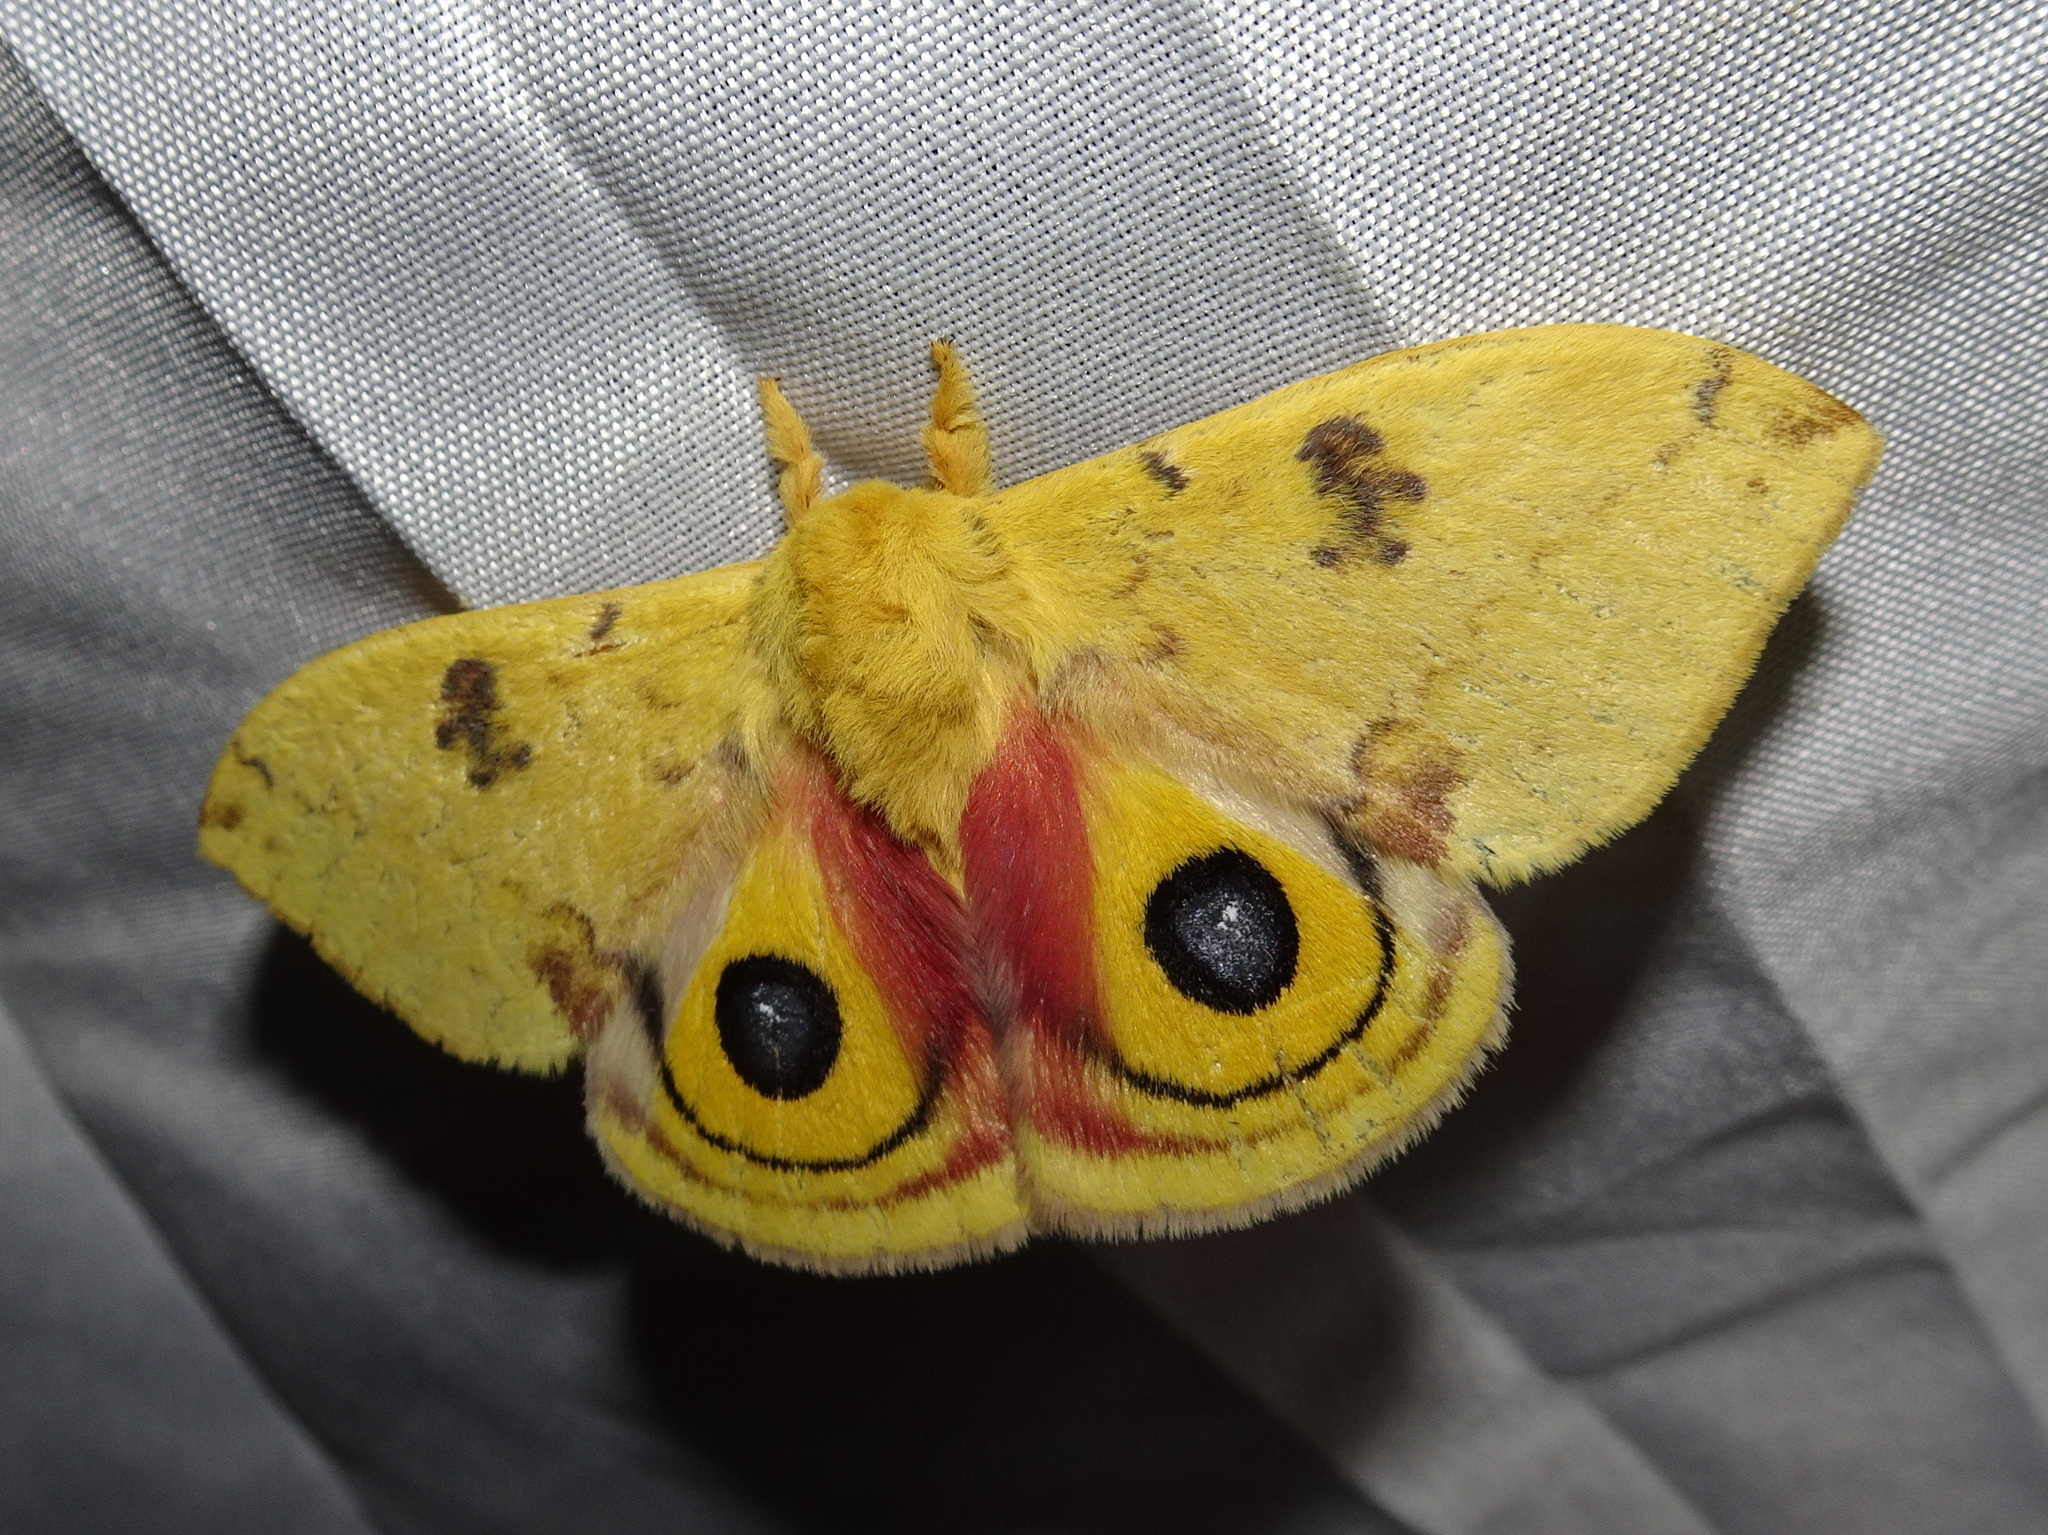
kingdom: Animalia
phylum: Arthropoda
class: Insecta
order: Lepidoptera
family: Saturniidae
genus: Automeris
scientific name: Automeris io
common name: Io moth
